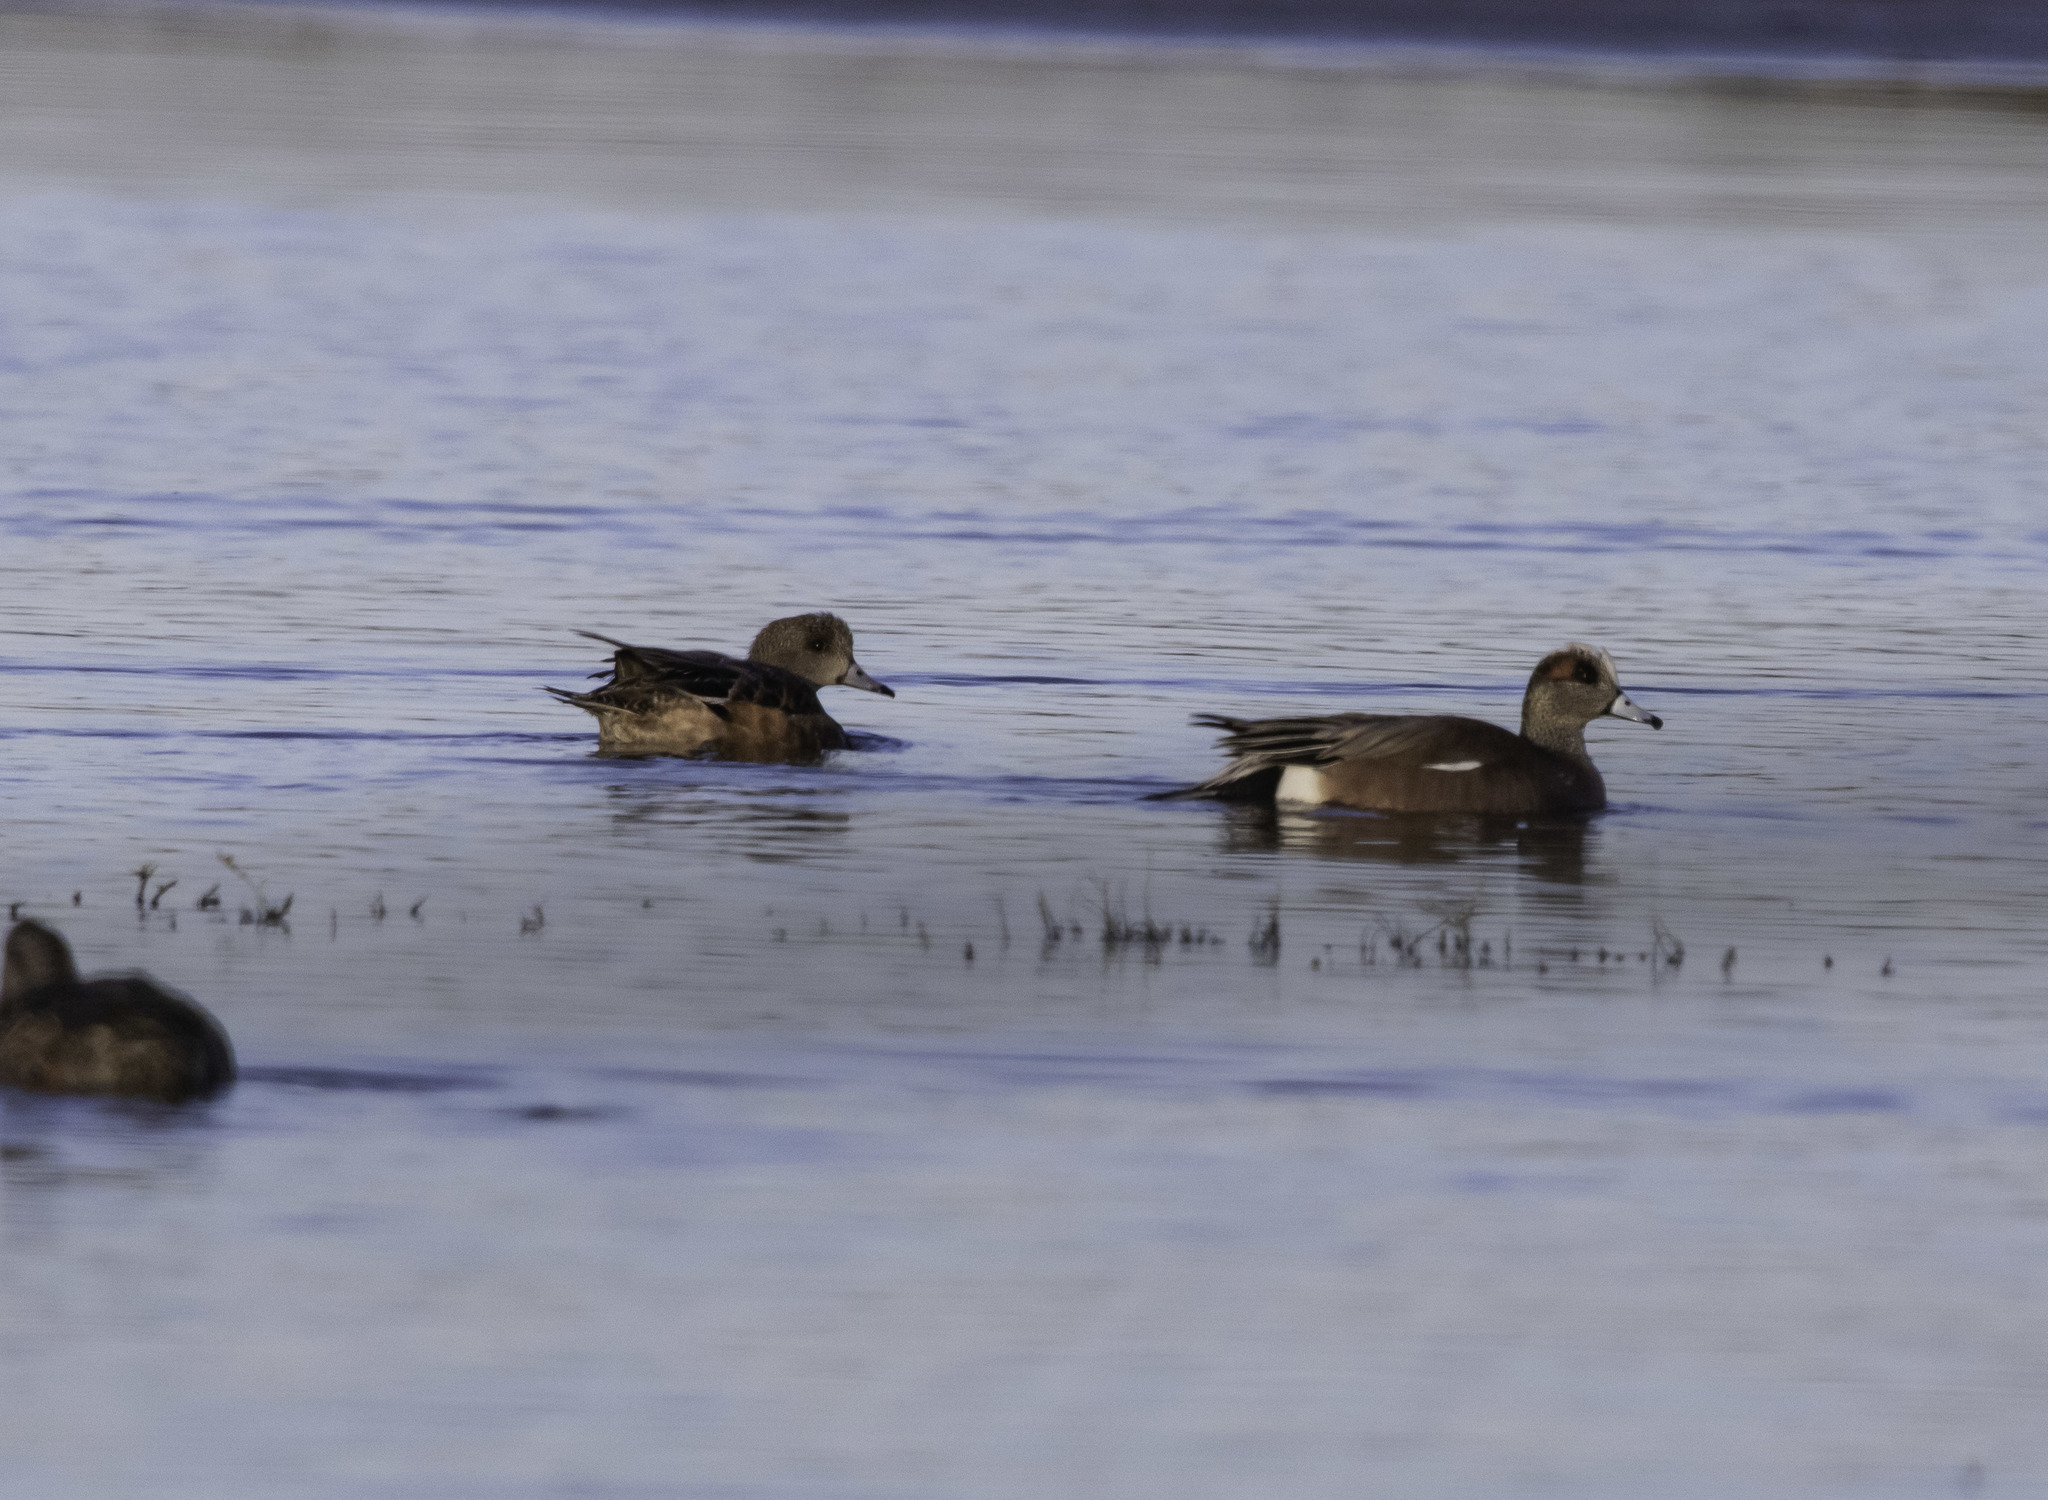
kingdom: Animalia
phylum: Chordata
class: Aves
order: Anseriformes
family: Anatidae
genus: Mareca
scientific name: Mareca americana
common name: American wigeon
